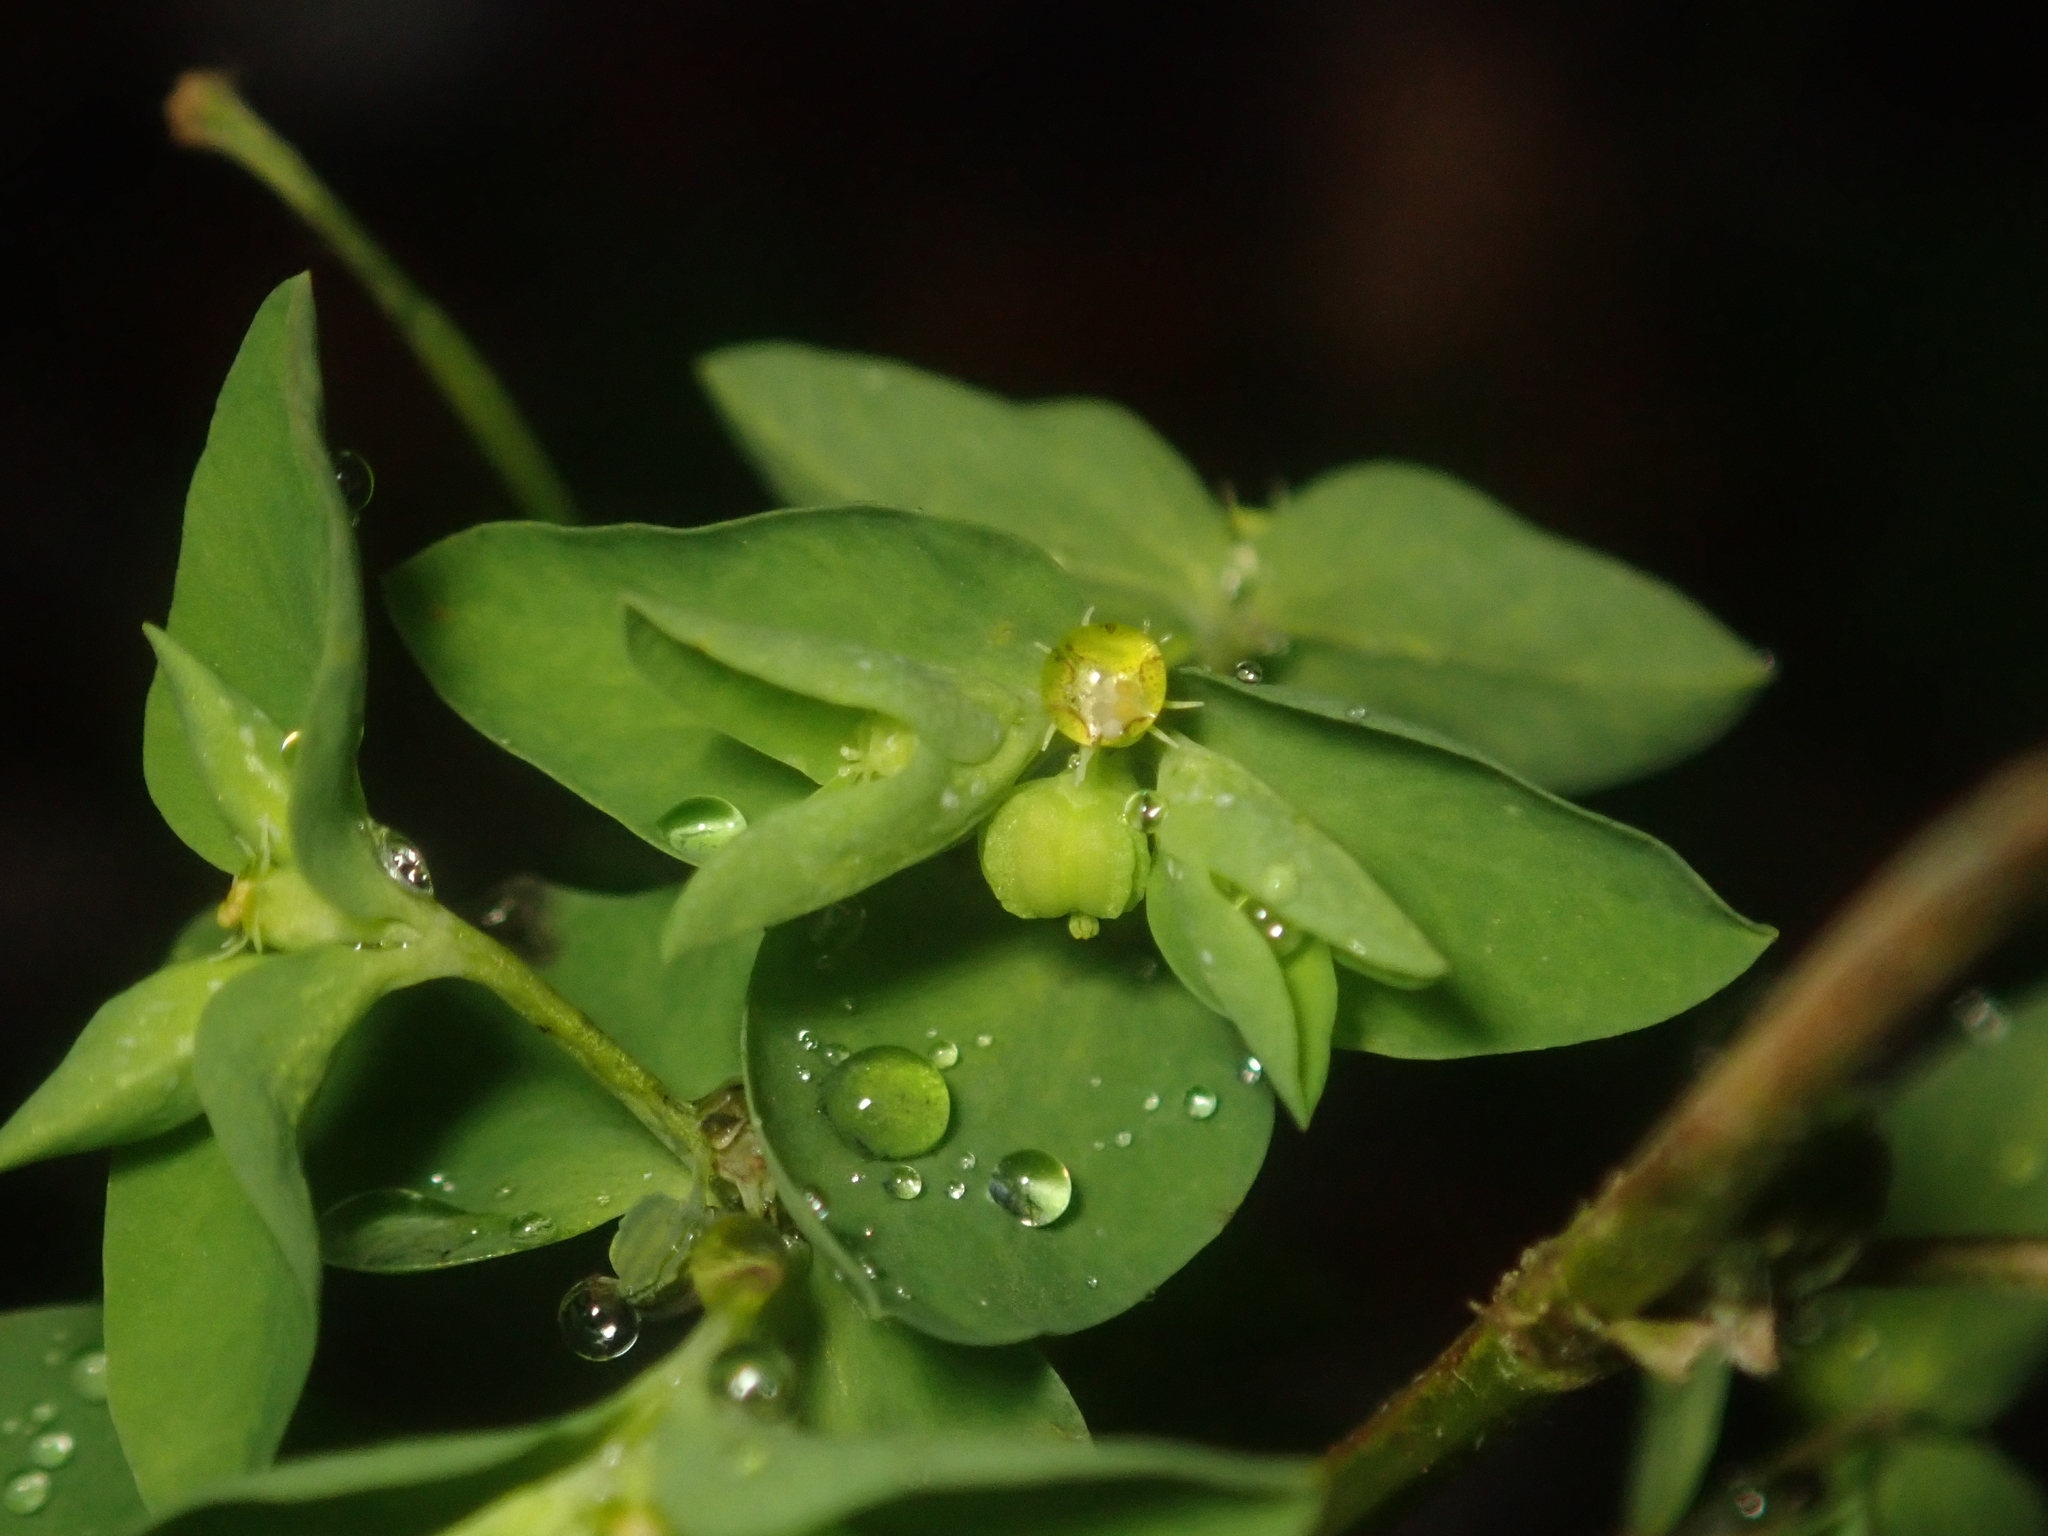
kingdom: Plantae
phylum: Tracheophyta
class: Magnoliopsida
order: Malpighiales
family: Euphorbiaceae
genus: Euphorbia
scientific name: Euphorbia peplus
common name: Petty spurge
